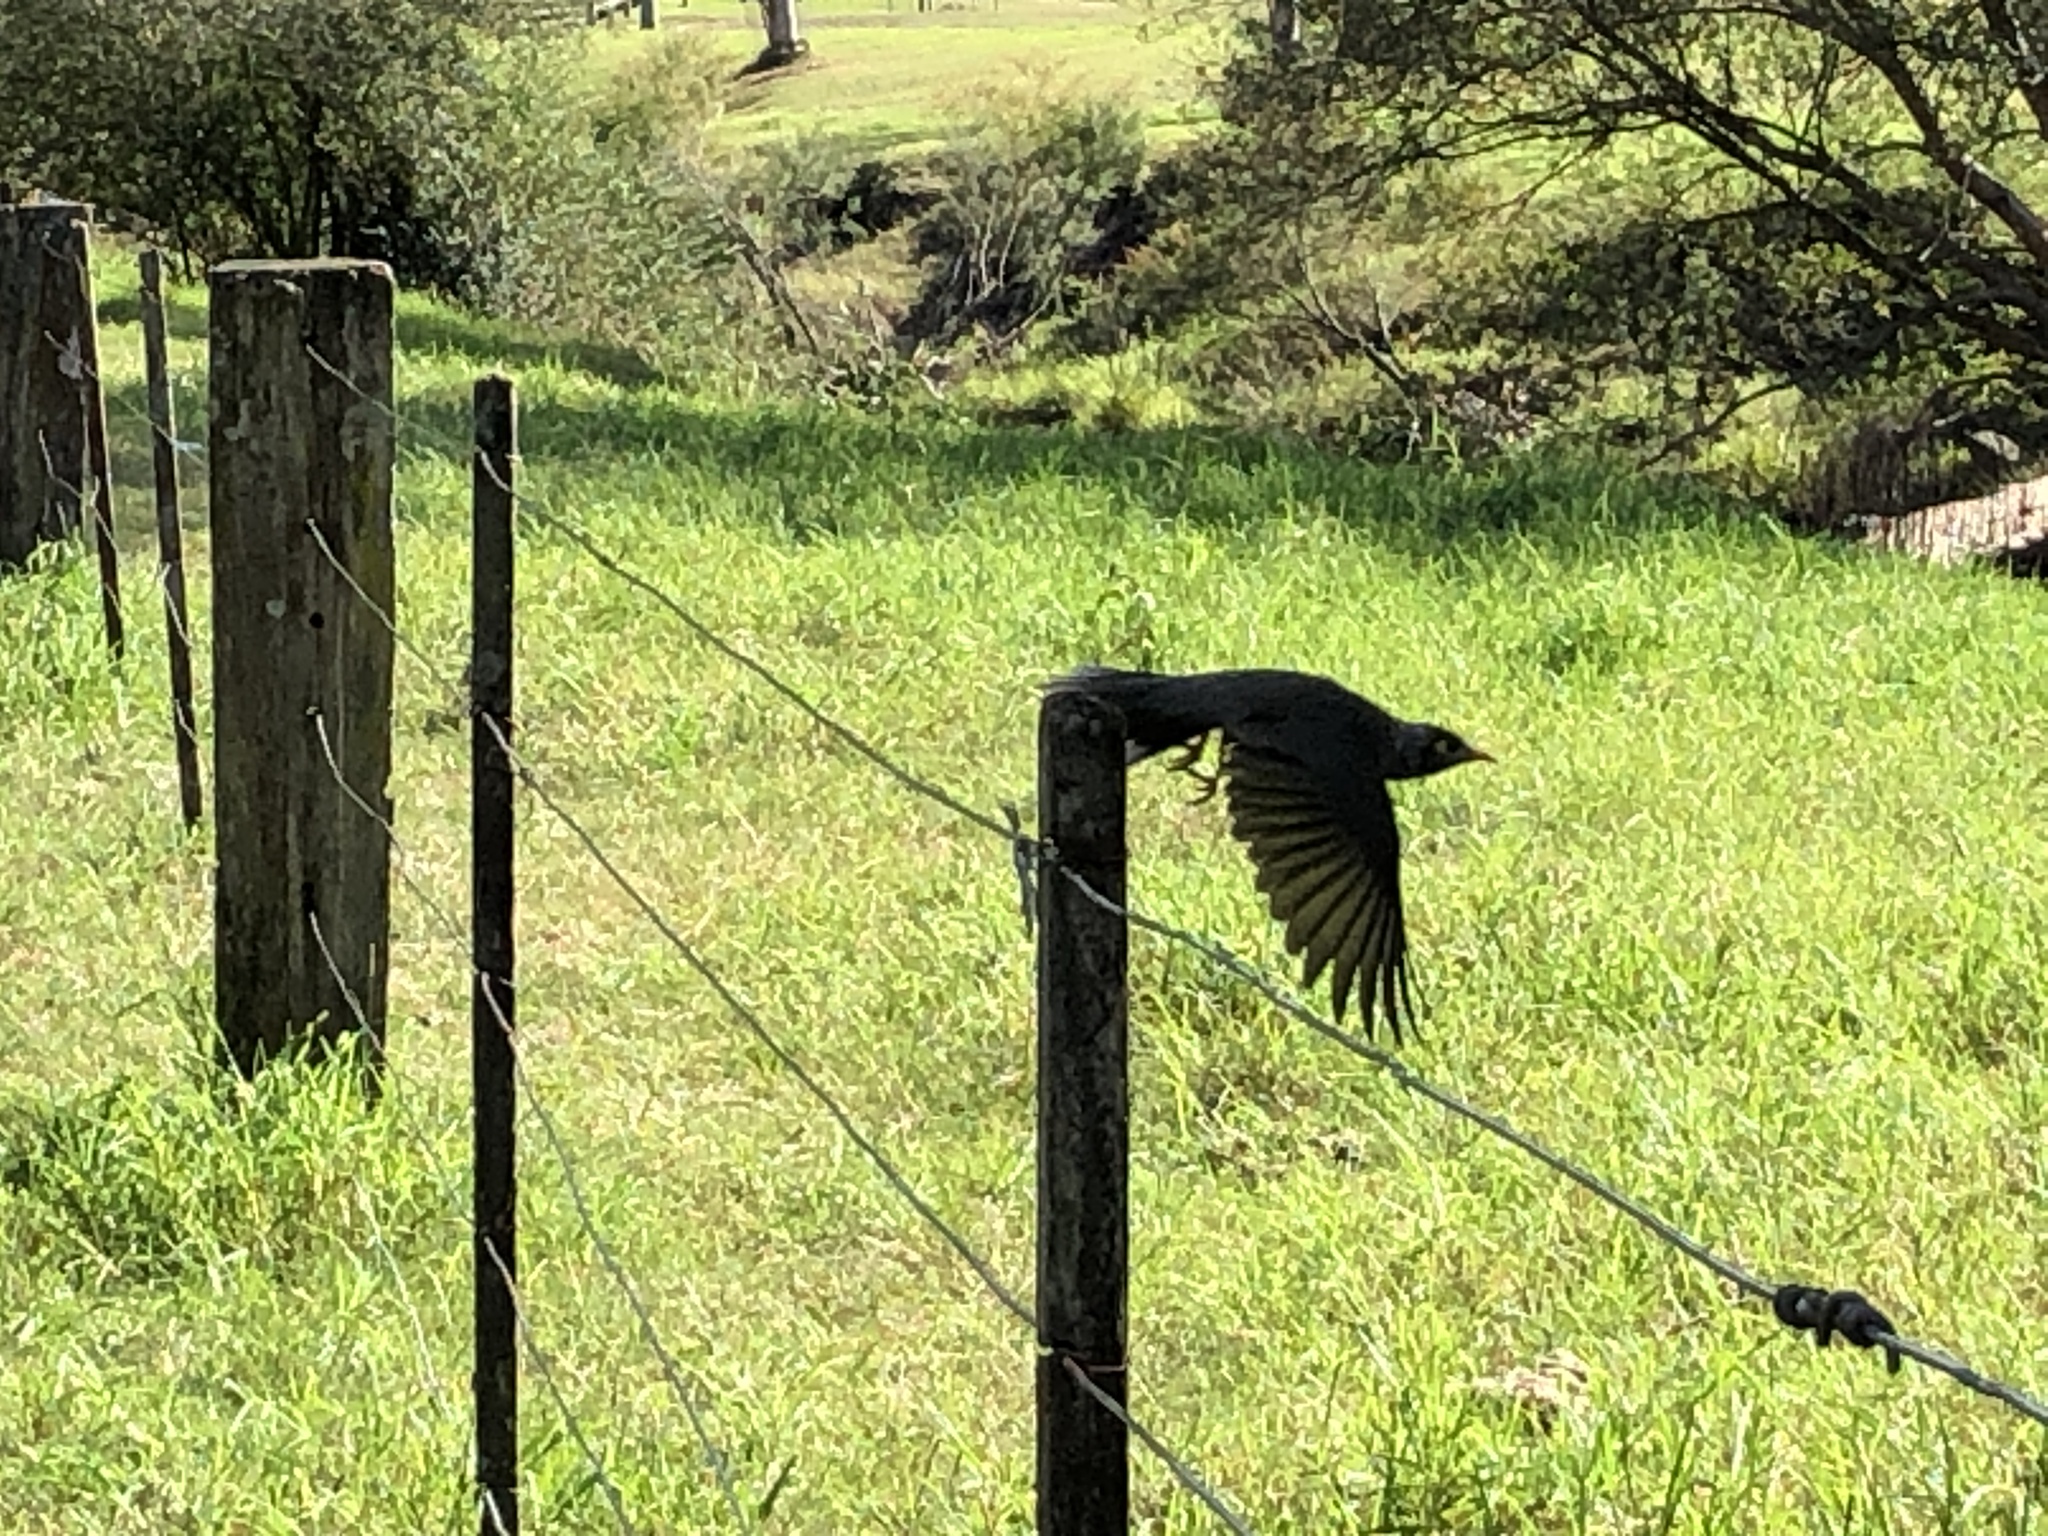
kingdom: Animalia
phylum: Chordata
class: Aves
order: Passeriformes
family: Meliphagidae
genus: Manorina
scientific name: Manorina melanocephala
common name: Noisy miner
